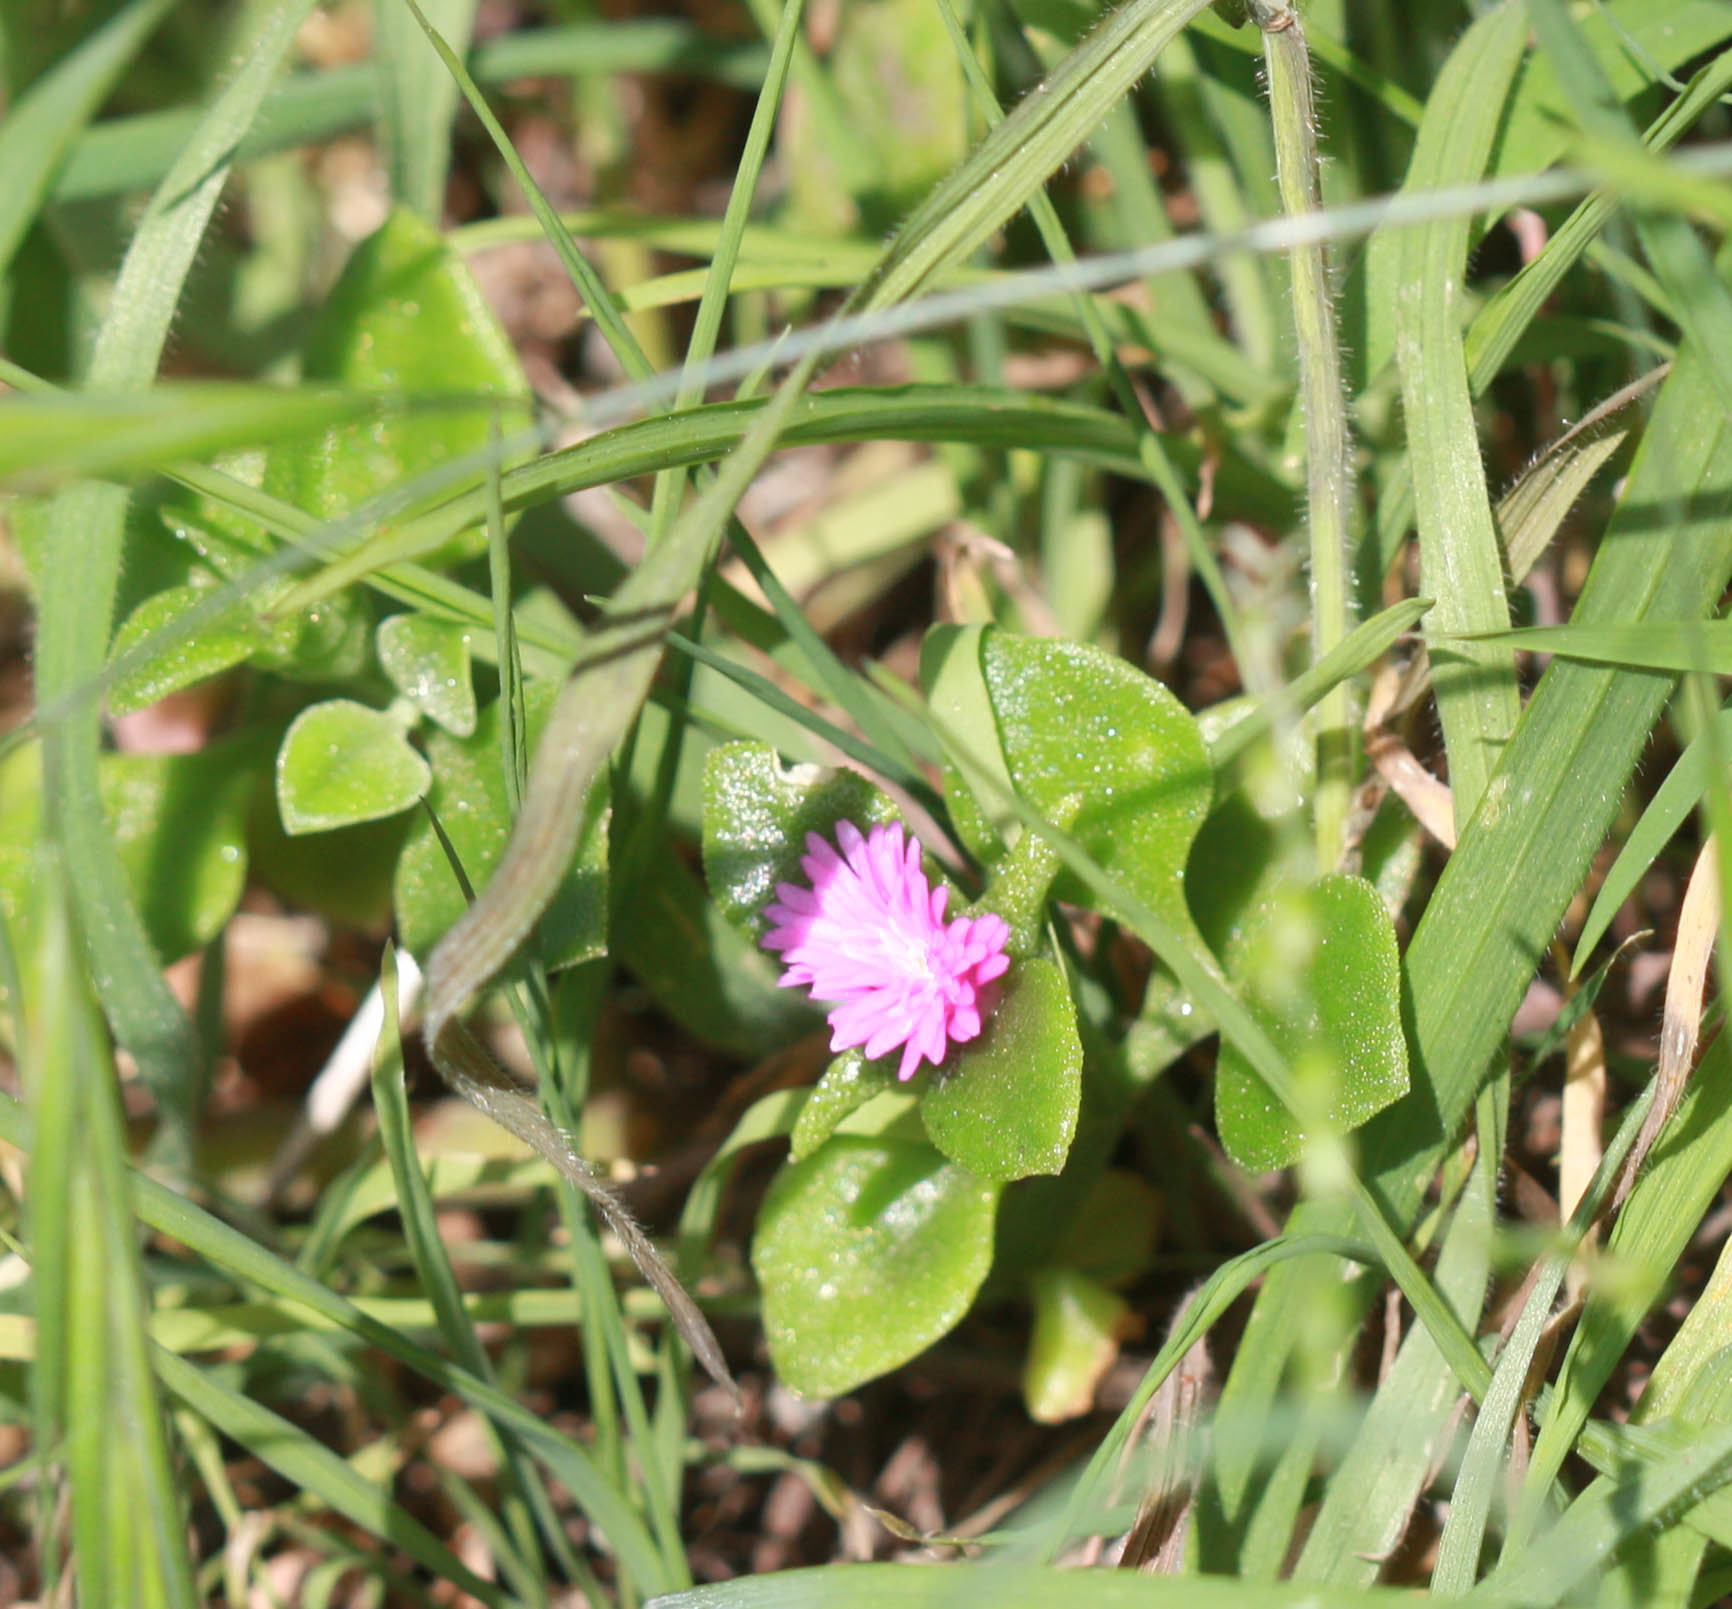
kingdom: Plantae
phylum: Tracheophyta
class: Magnoliopsida
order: Caryophyllales
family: Aizoaceae
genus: Mesembryanthemum
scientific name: Mesembryanthemum cordifolium
